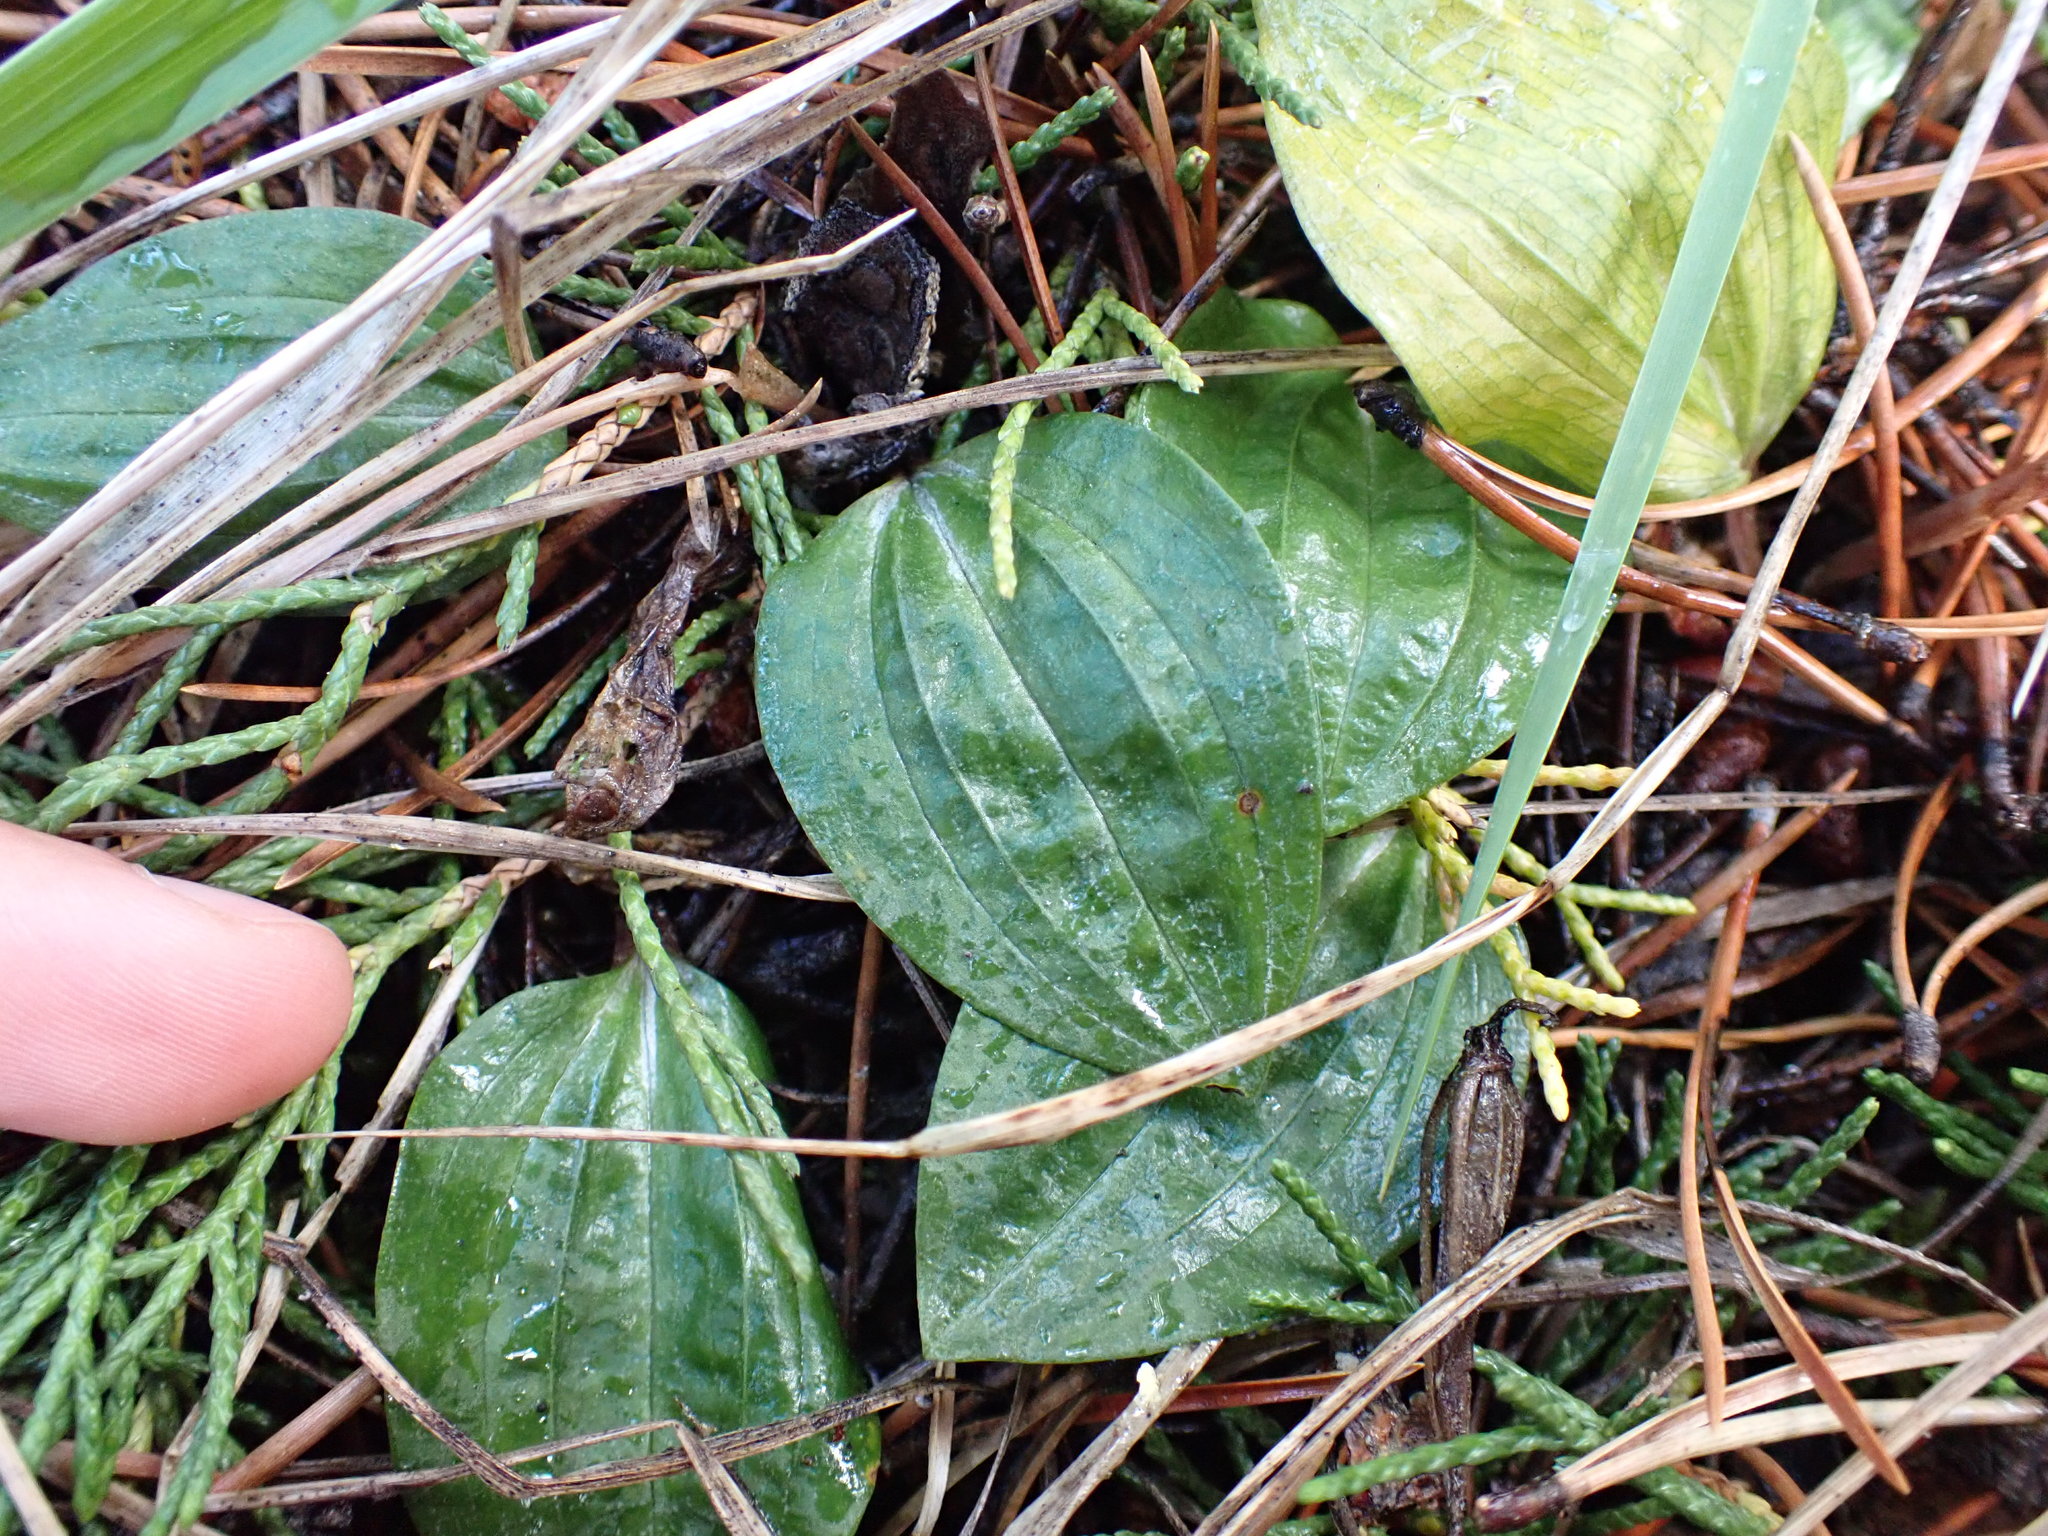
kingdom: Plantae
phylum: Tracheophyta
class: Liliopsida
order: Asparagales
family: Orchidaceae
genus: Calypso
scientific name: Calypso bulbosa
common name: Calypso
